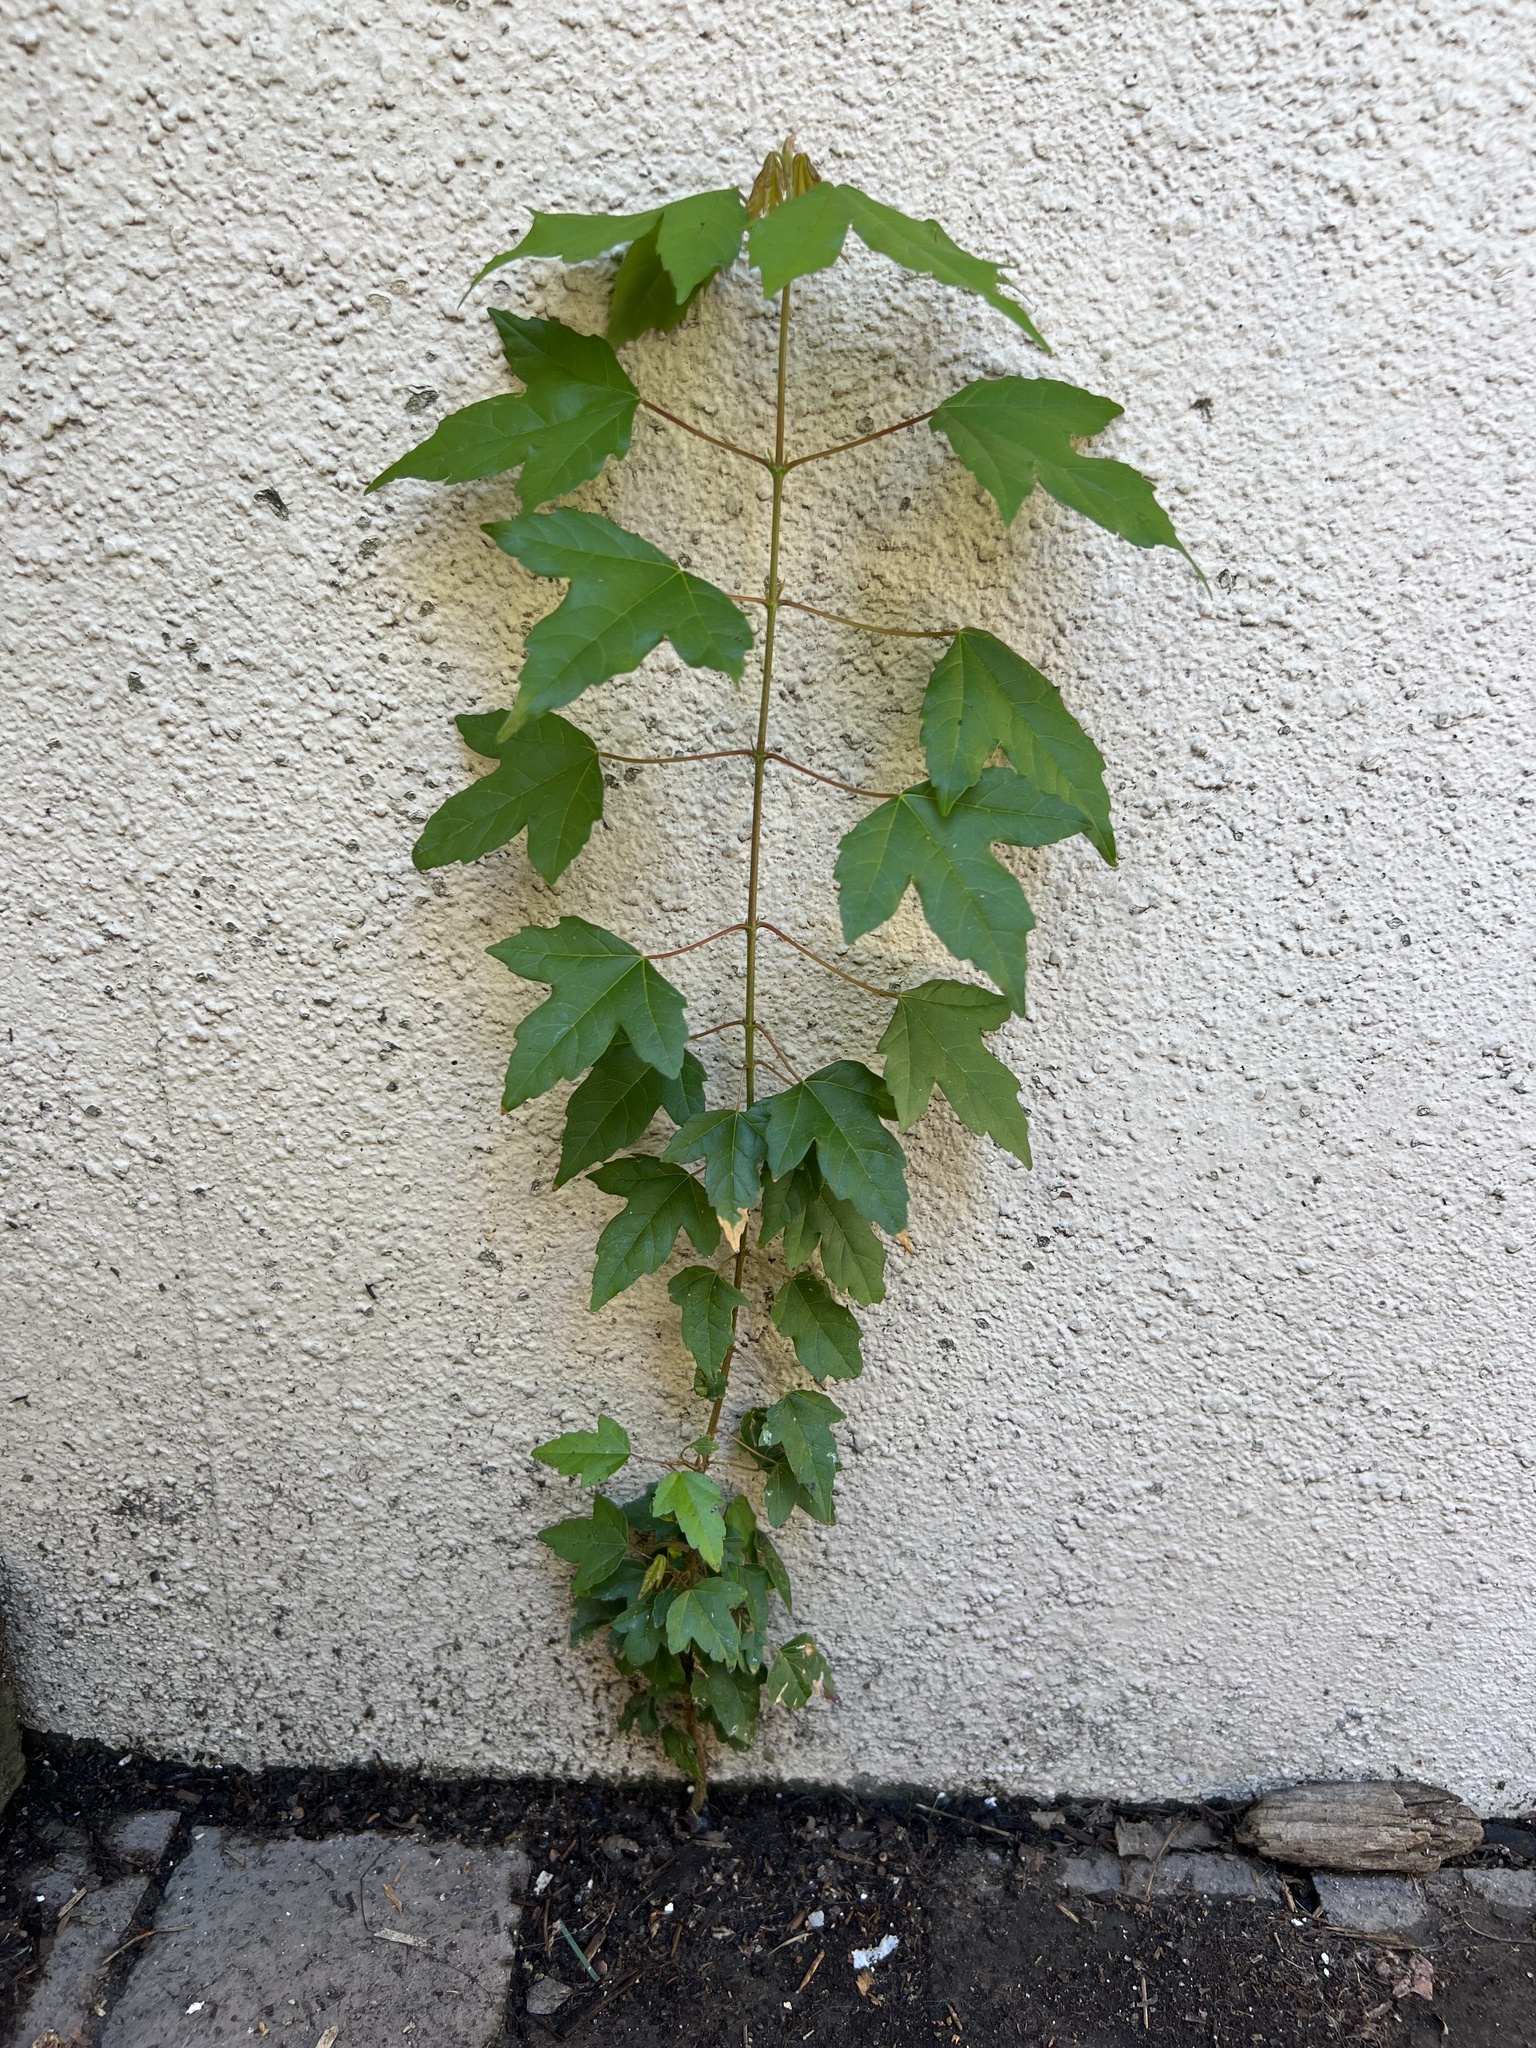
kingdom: Plantae
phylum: Tracheophyta
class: Magnoliopsida
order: Sapindales
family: Sapindaceae
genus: Acer
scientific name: Acer buergerianum
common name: Trident maple
